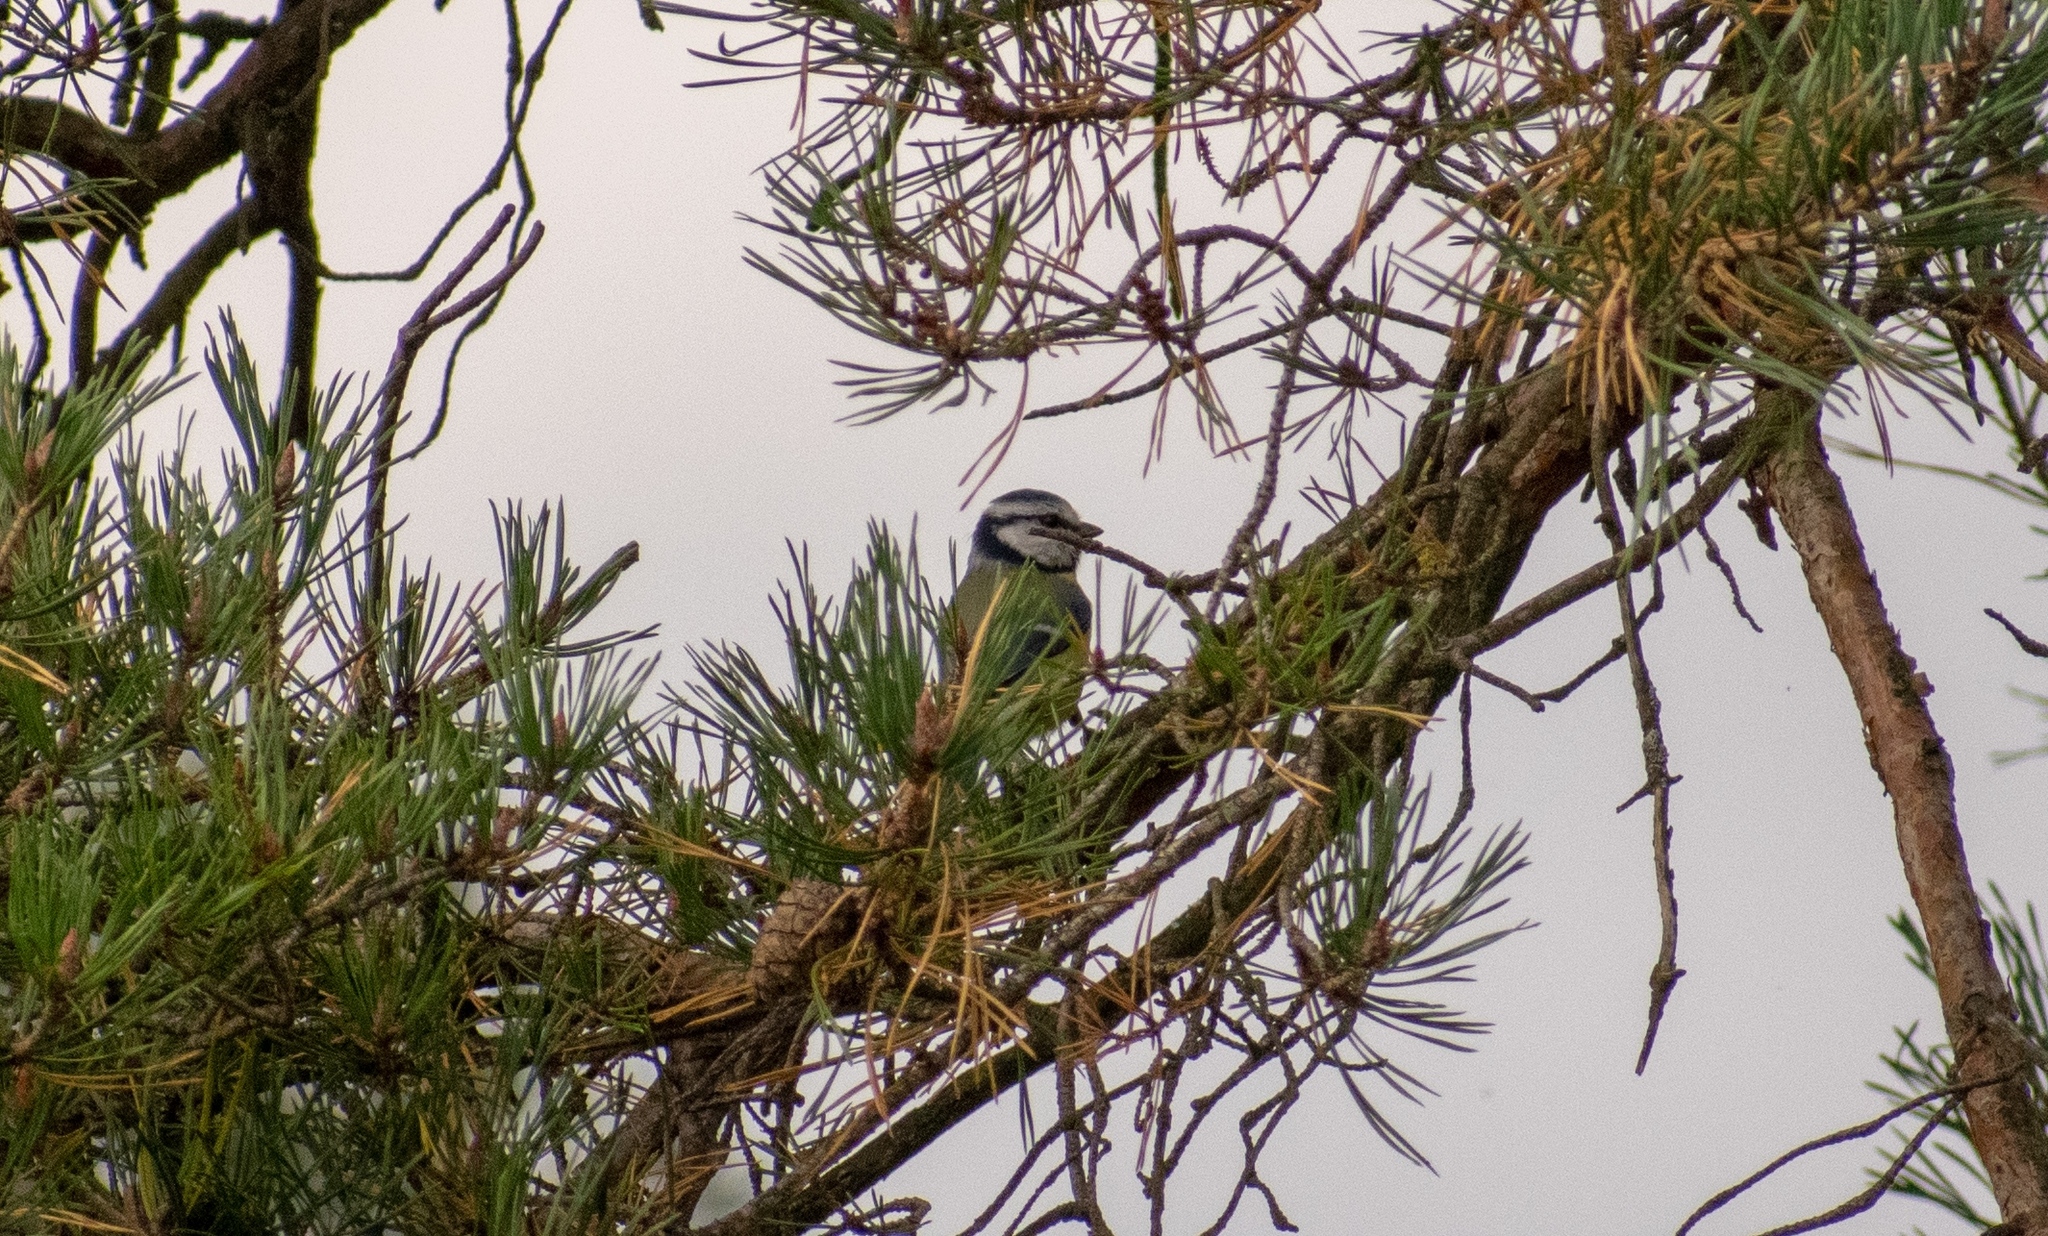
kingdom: Animalia
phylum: Chordata
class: Aves
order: Passeriformes
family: Paridae
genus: Cyanistes
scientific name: Cyanistes caeruleus
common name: Eurasian blue tit
